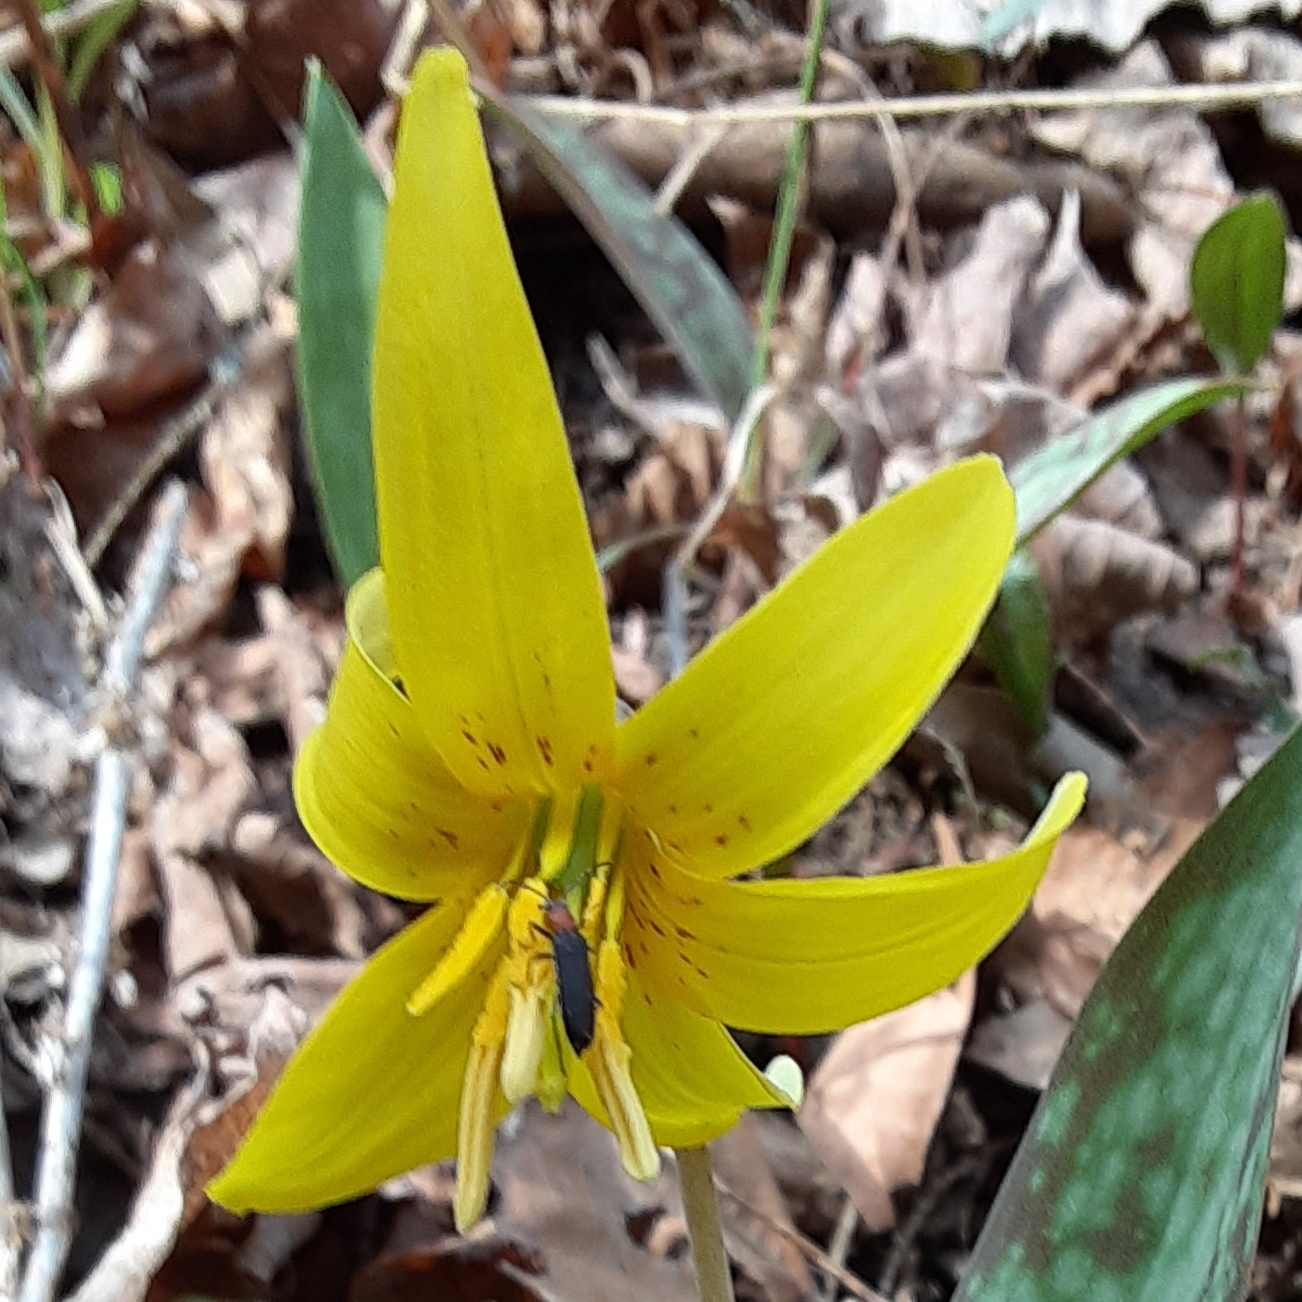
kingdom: Plantae
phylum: Tracheophyta
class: Liliopsida
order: Liliales
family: Liliaceae
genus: Erythronium
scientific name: Erythronium americanum
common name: Yellow adder's-tongue
